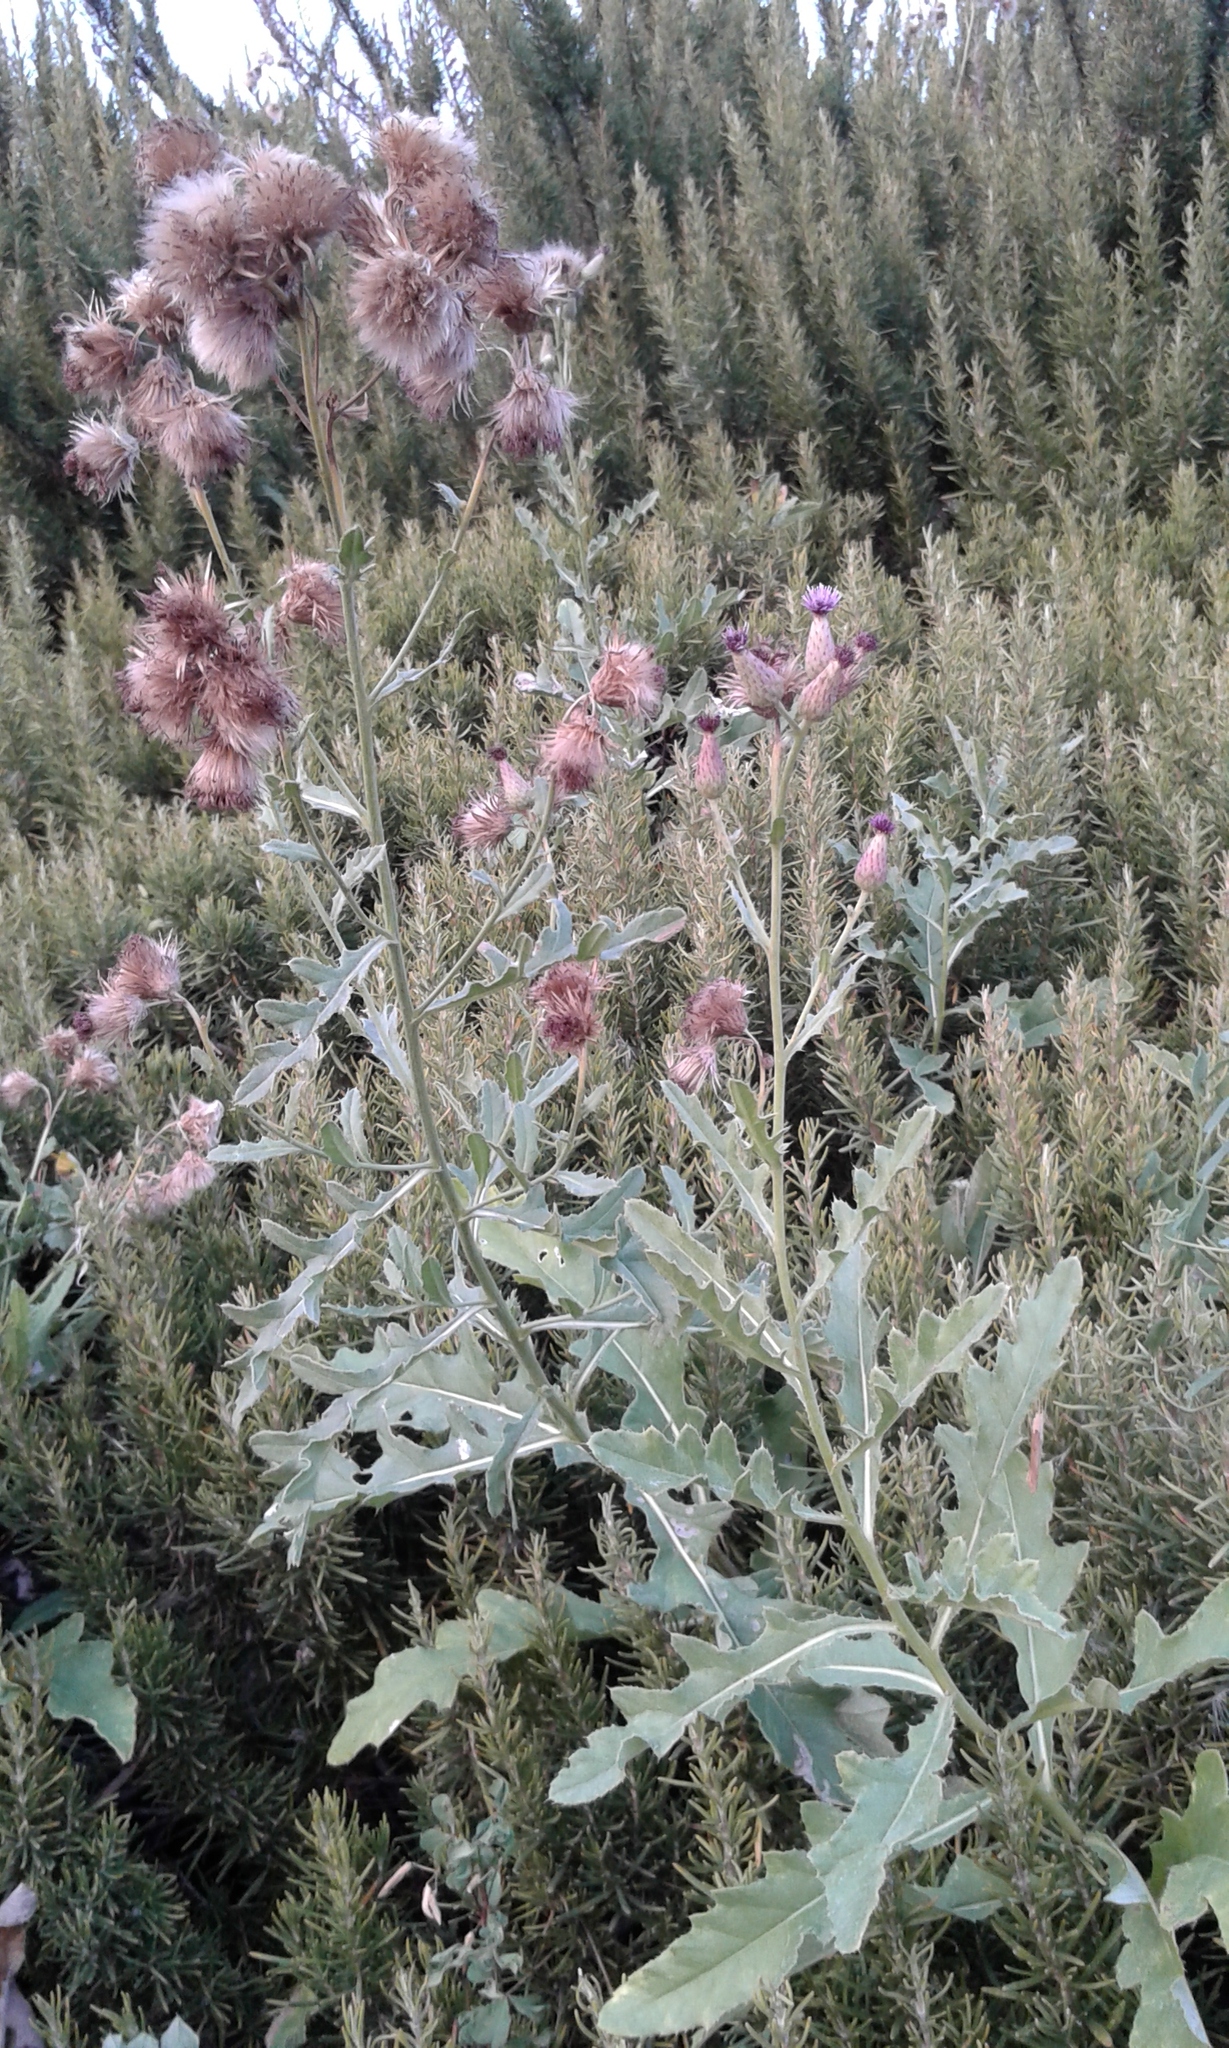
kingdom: Plantae
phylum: Tracheophyta
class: Magnoliopsida
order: Asterales
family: Asteraceae
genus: Cirsium
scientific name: Cirsium arvense
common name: Creeping thistle
